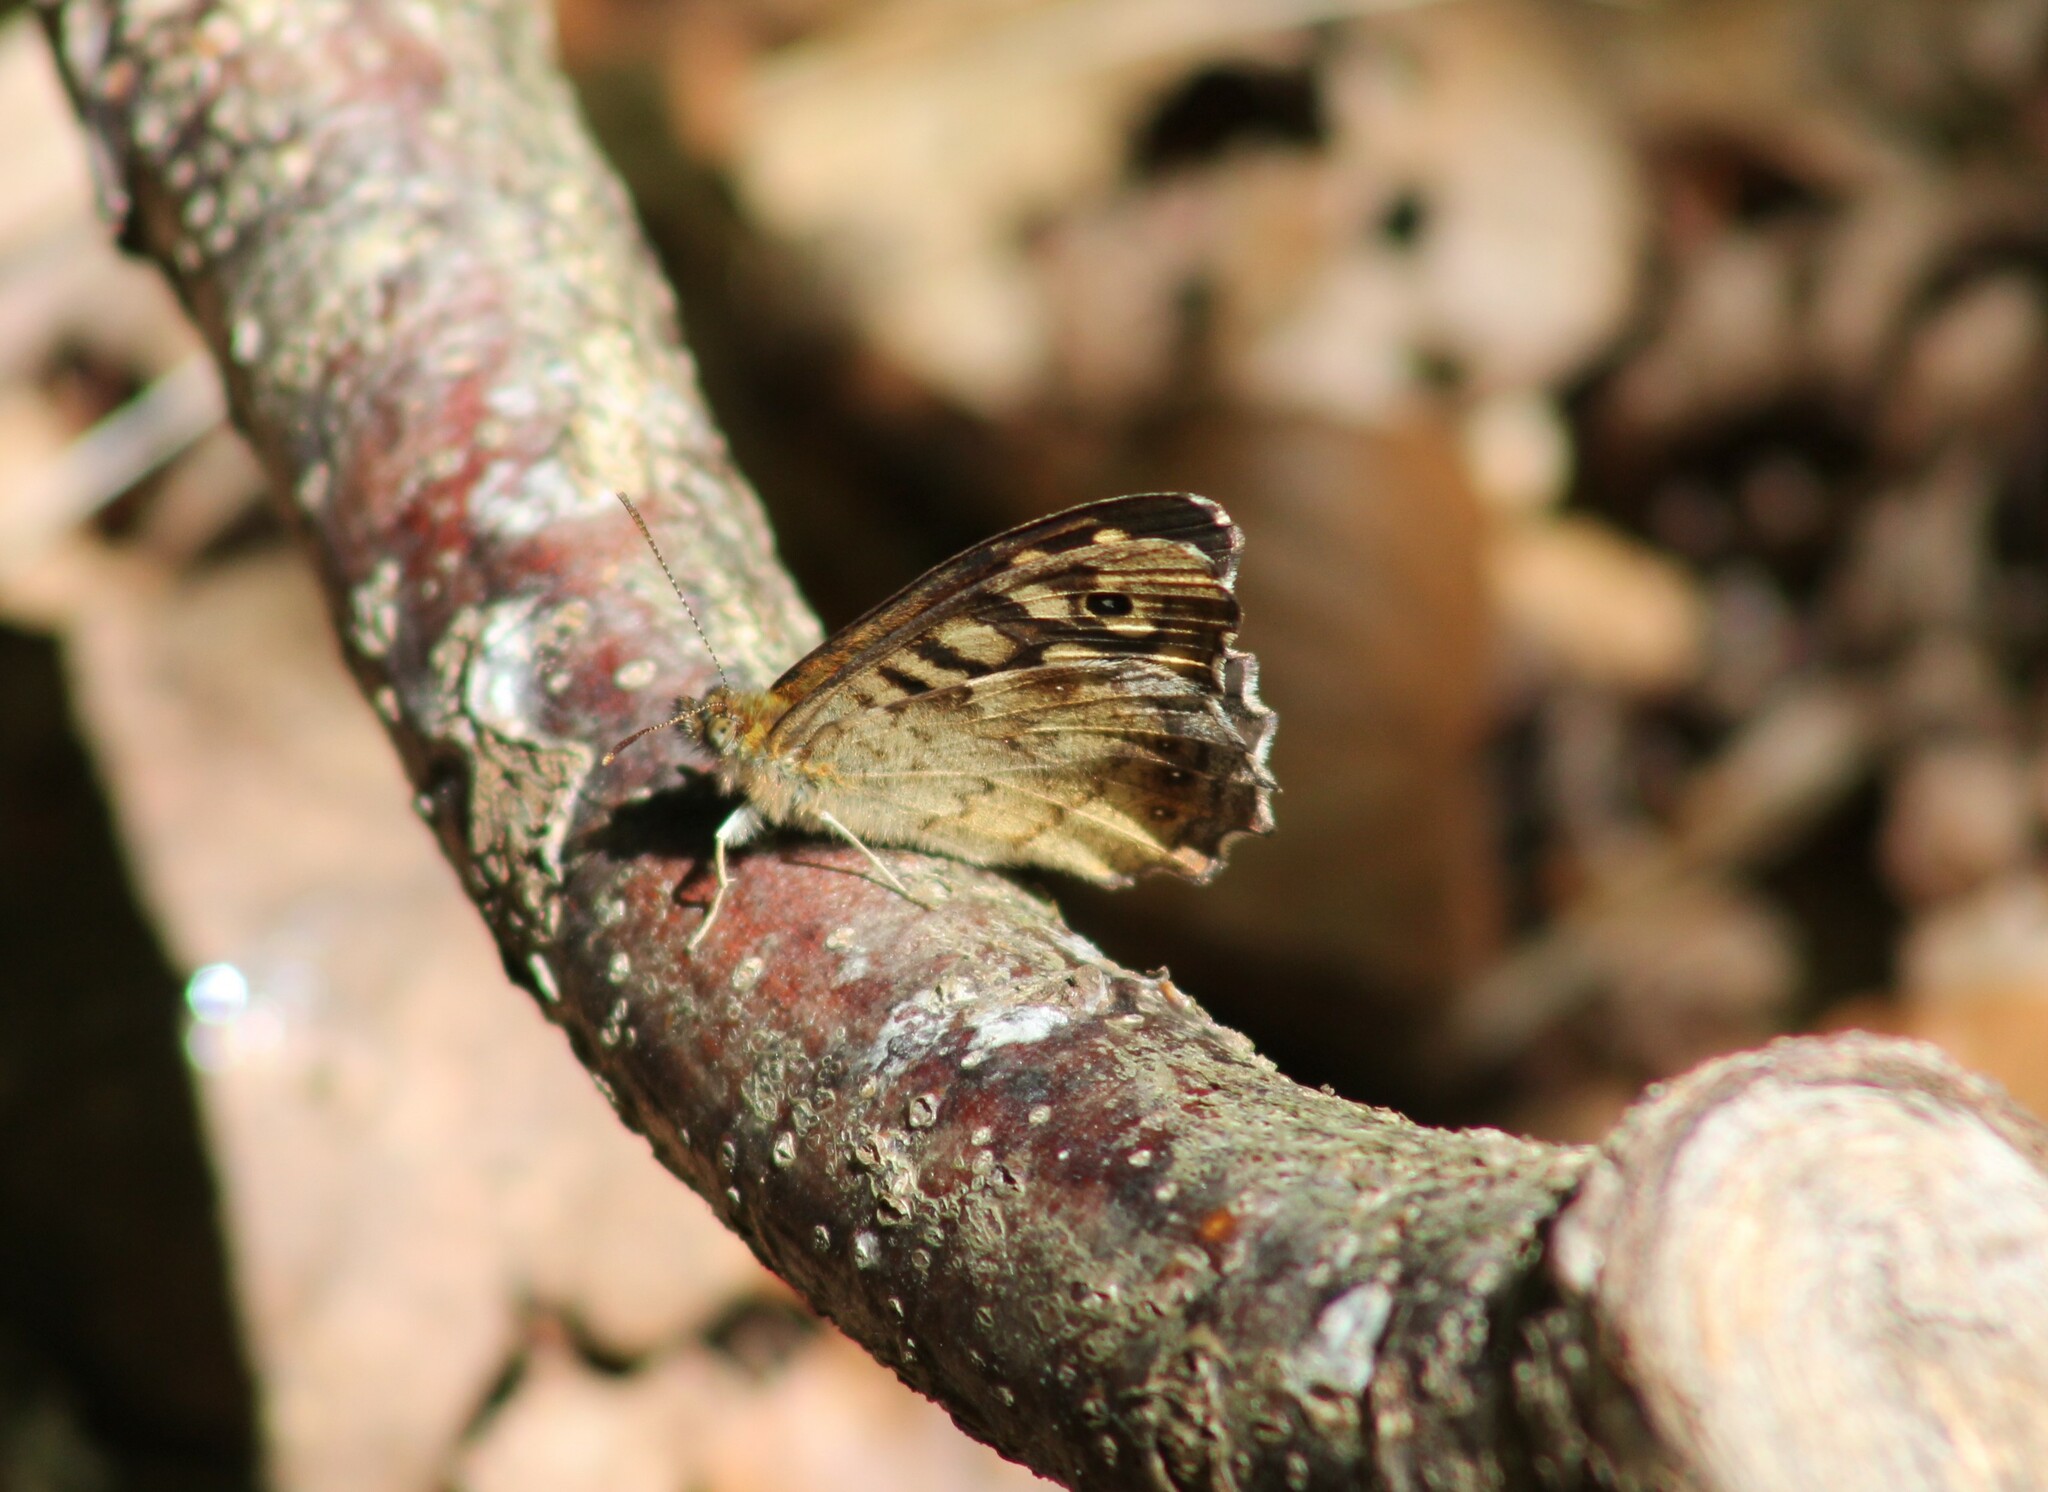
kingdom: Animalia
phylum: Arthropoda
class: Insecta
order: Lepidoptera
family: Nymphalidae
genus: Pararge
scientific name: Pararge aegeria
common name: Speckled wood
